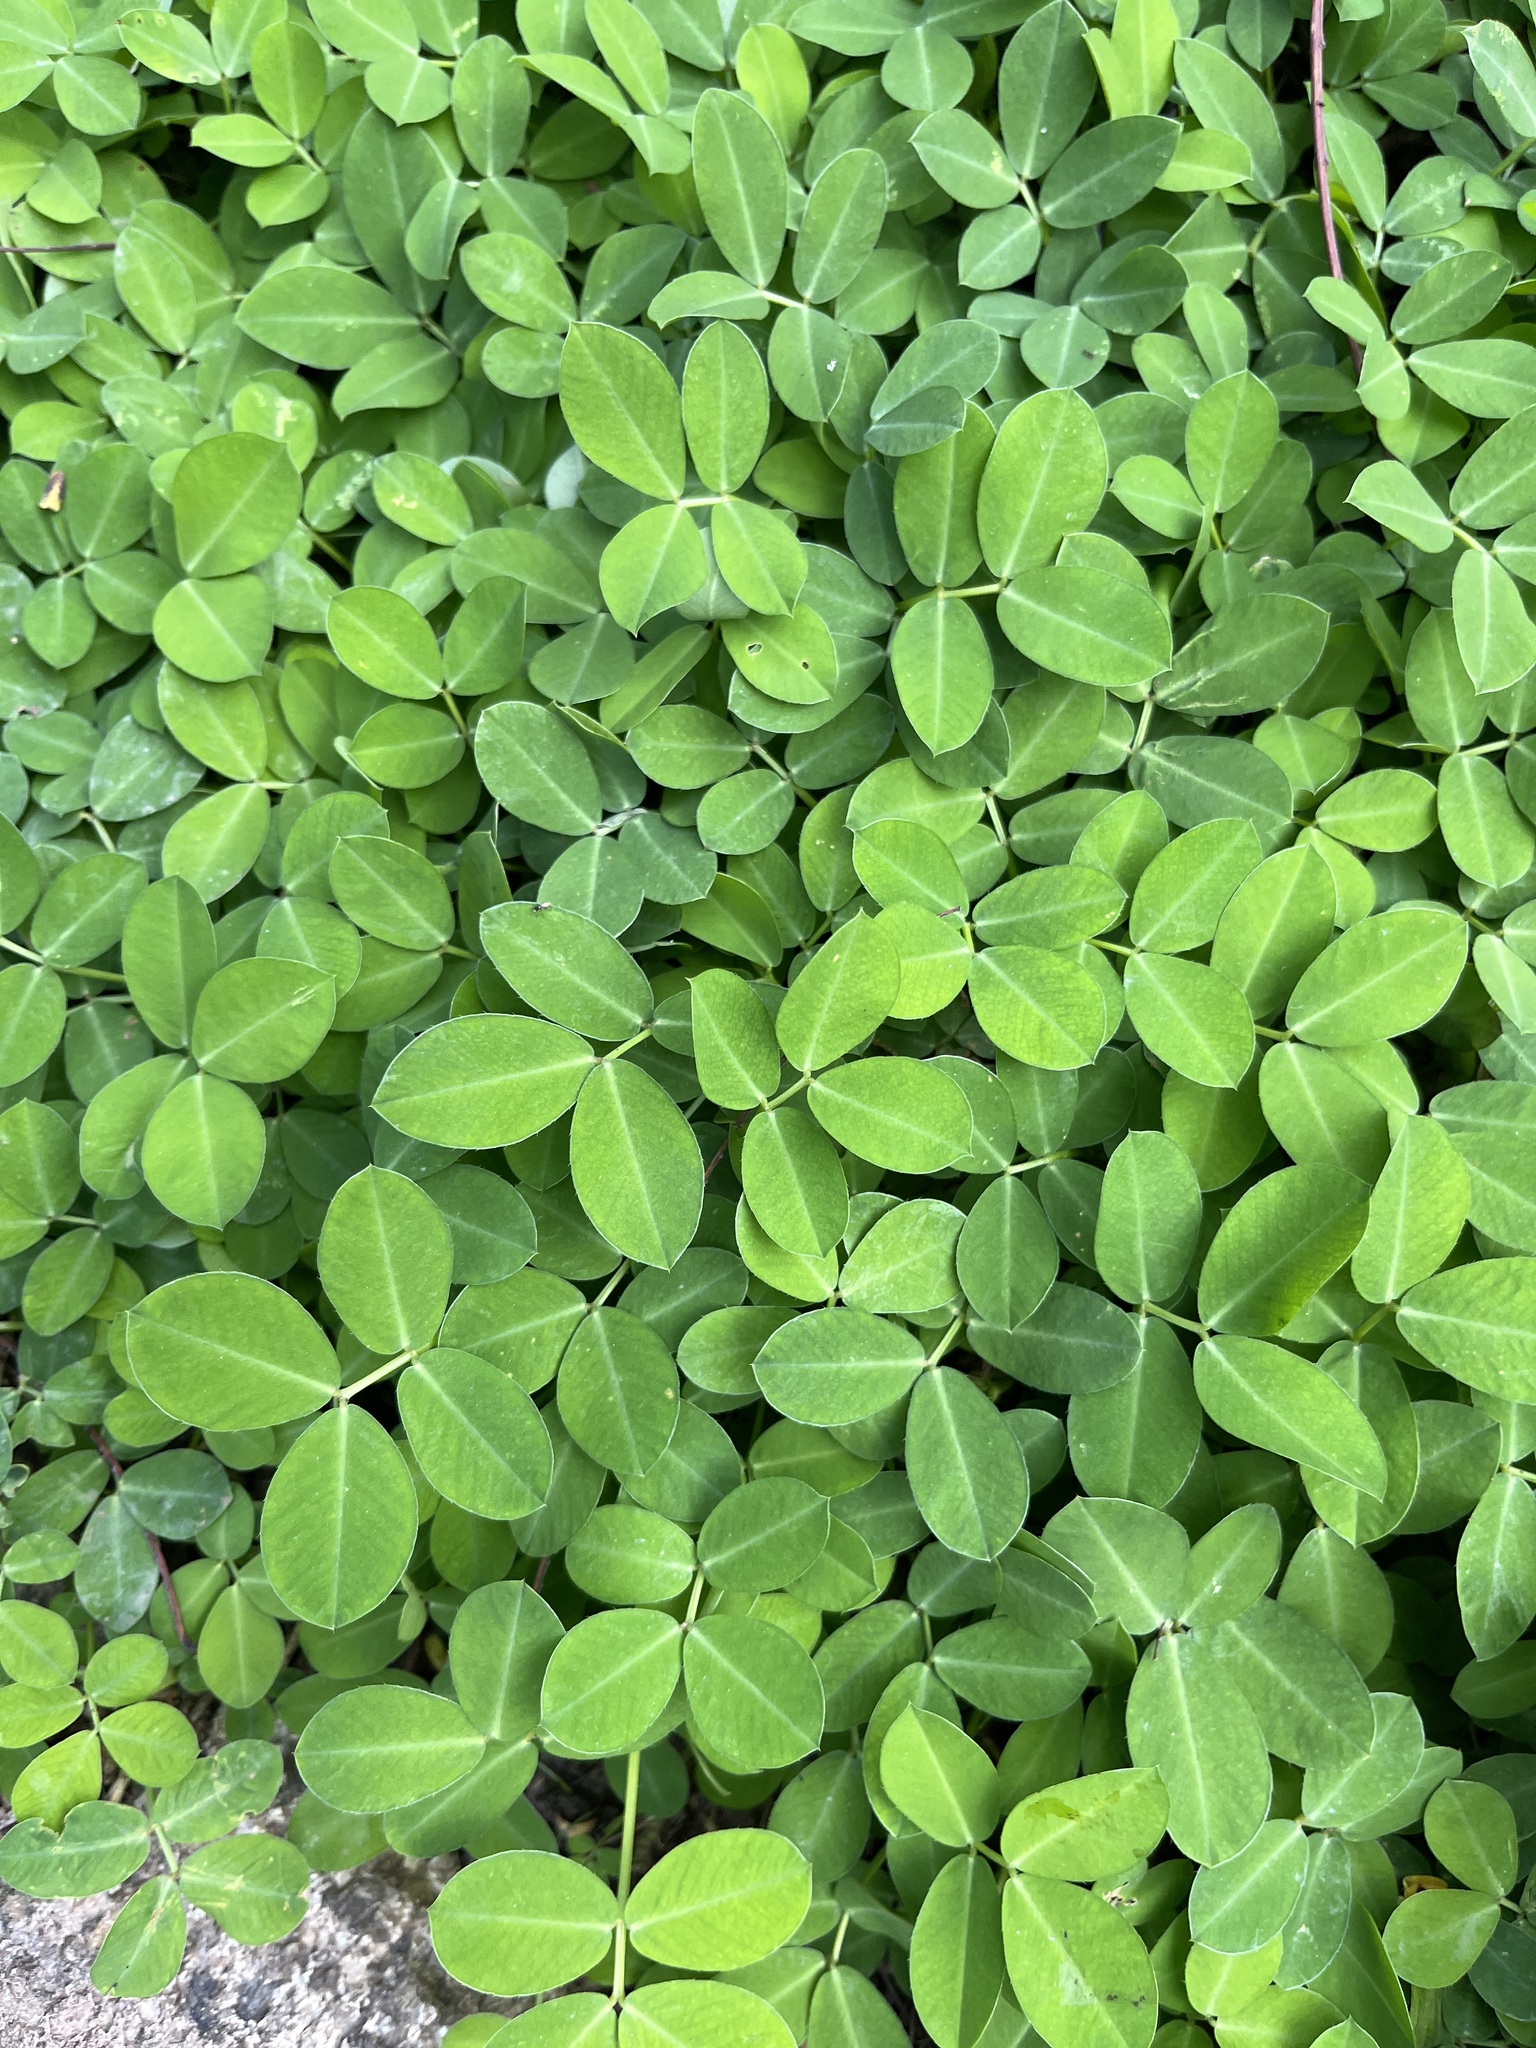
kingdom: Plantae
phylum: Tracheophyta
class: Magnoliopsida
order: Fabales
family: Fabaceae
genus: Arachis
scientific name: Arachis repens
